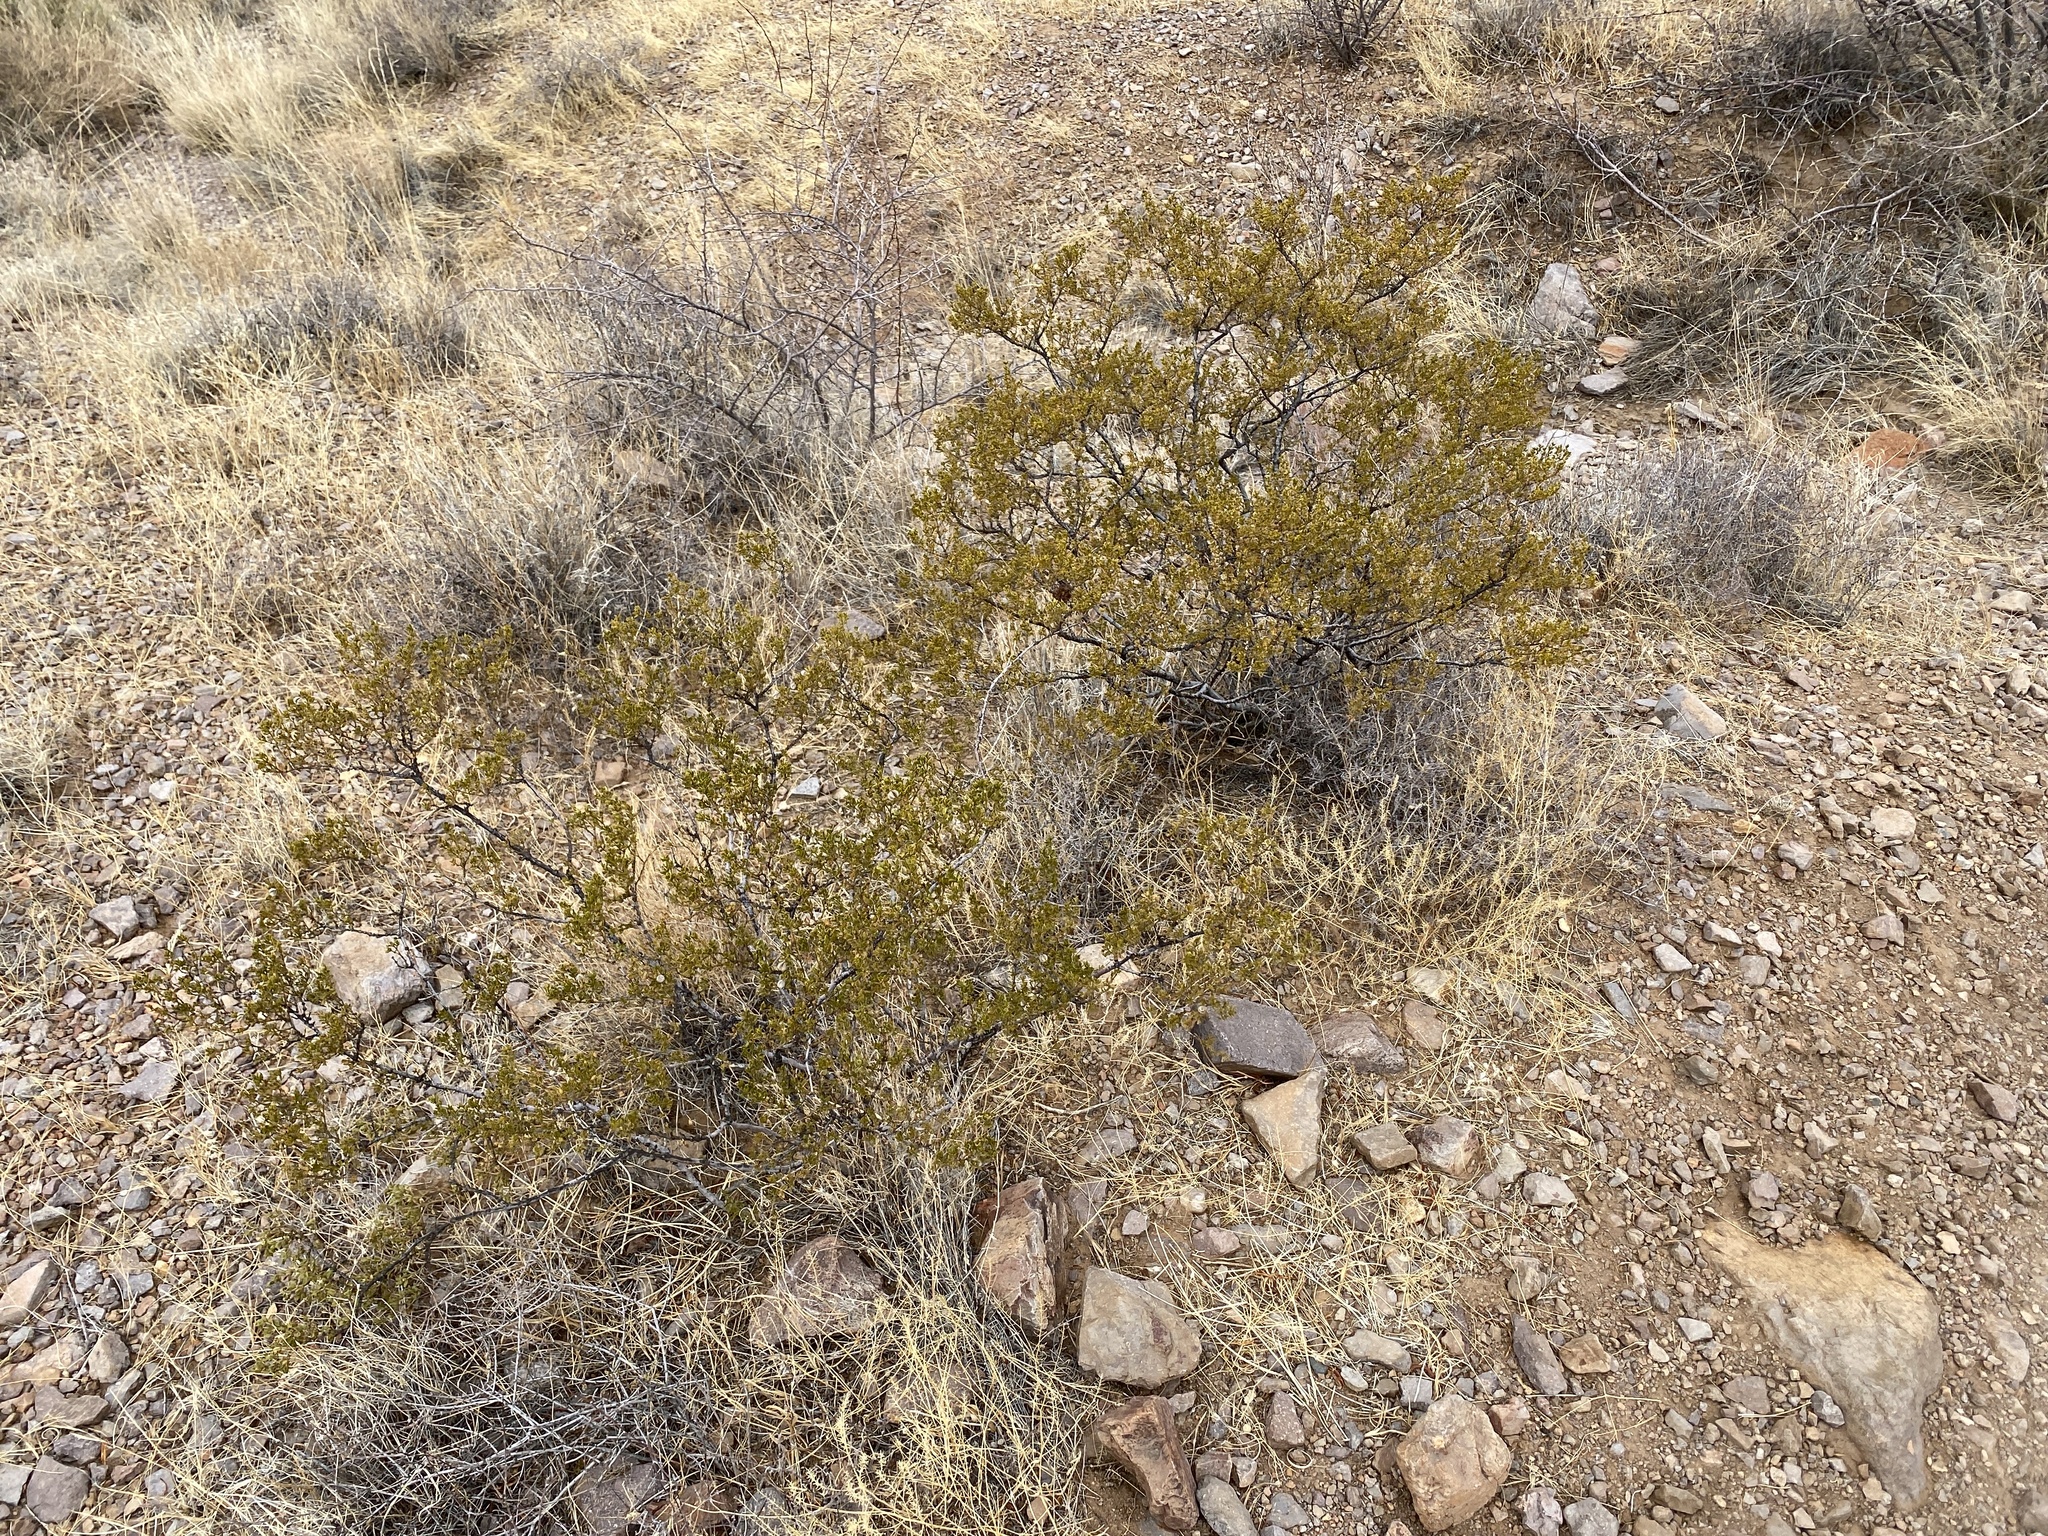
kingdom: Plantae
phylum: Tracheophyta
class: Magnoliopsida
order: Zygophyllales
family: Zygophyllaceae
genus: Larrea
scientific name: Larrea tridentata
